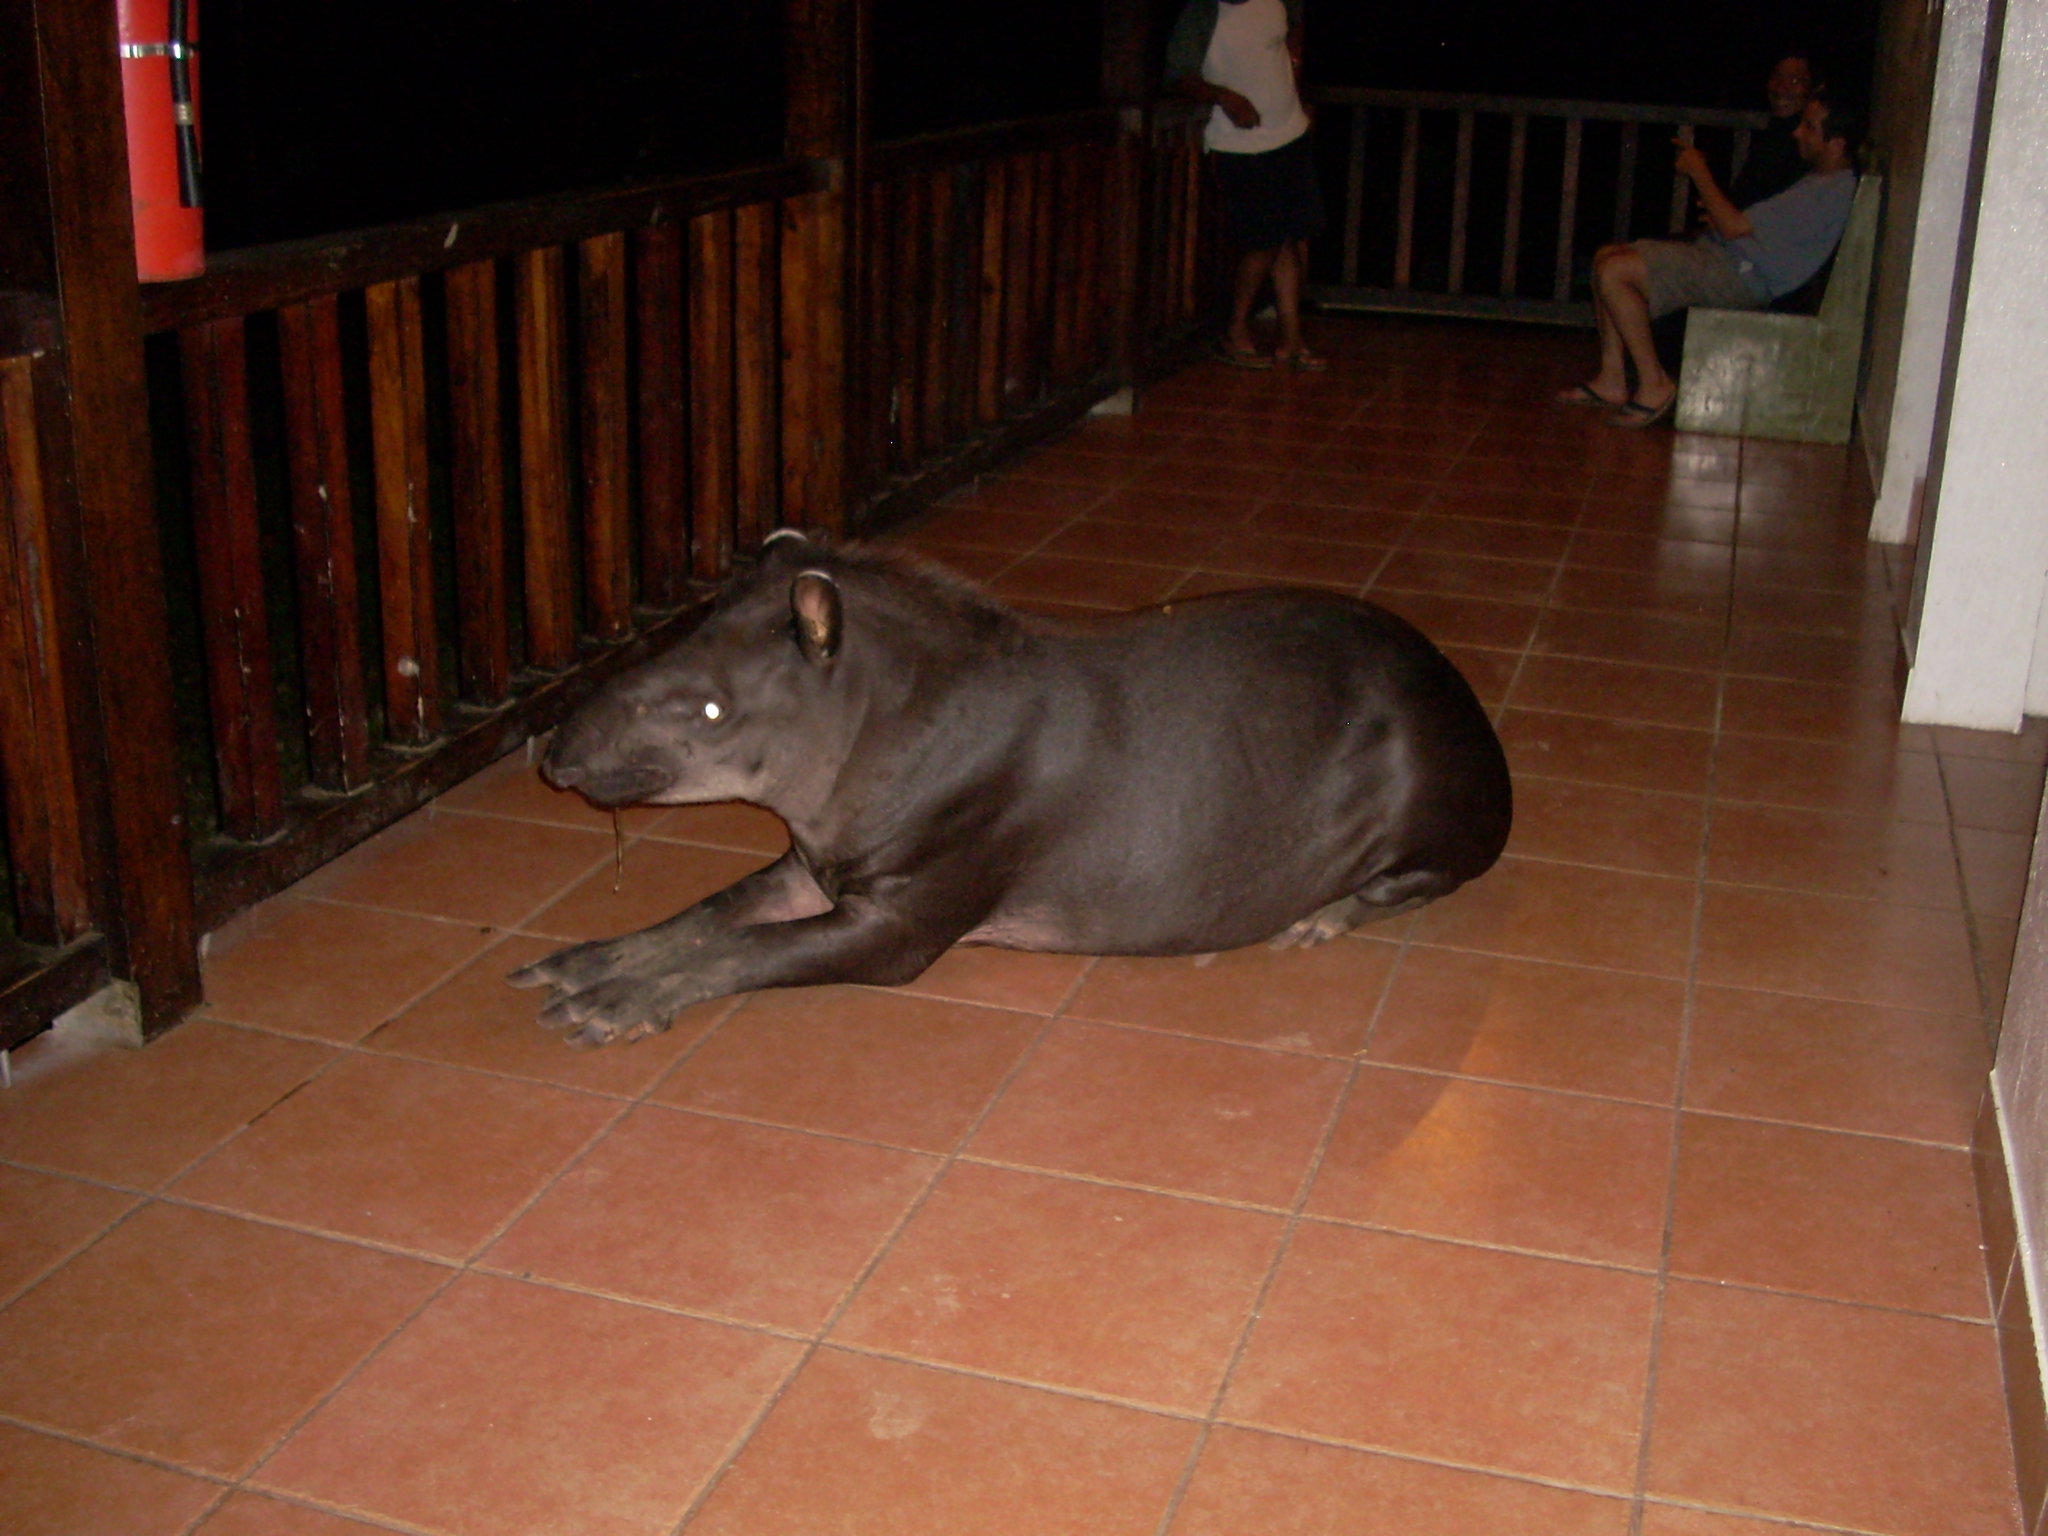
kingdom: Animalia
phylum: Chordata
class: Mammalia
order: Perissodactyla
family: Tapiridae
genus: Tapirus
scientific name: Tapirus terrestris
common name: Brazilian tapir
